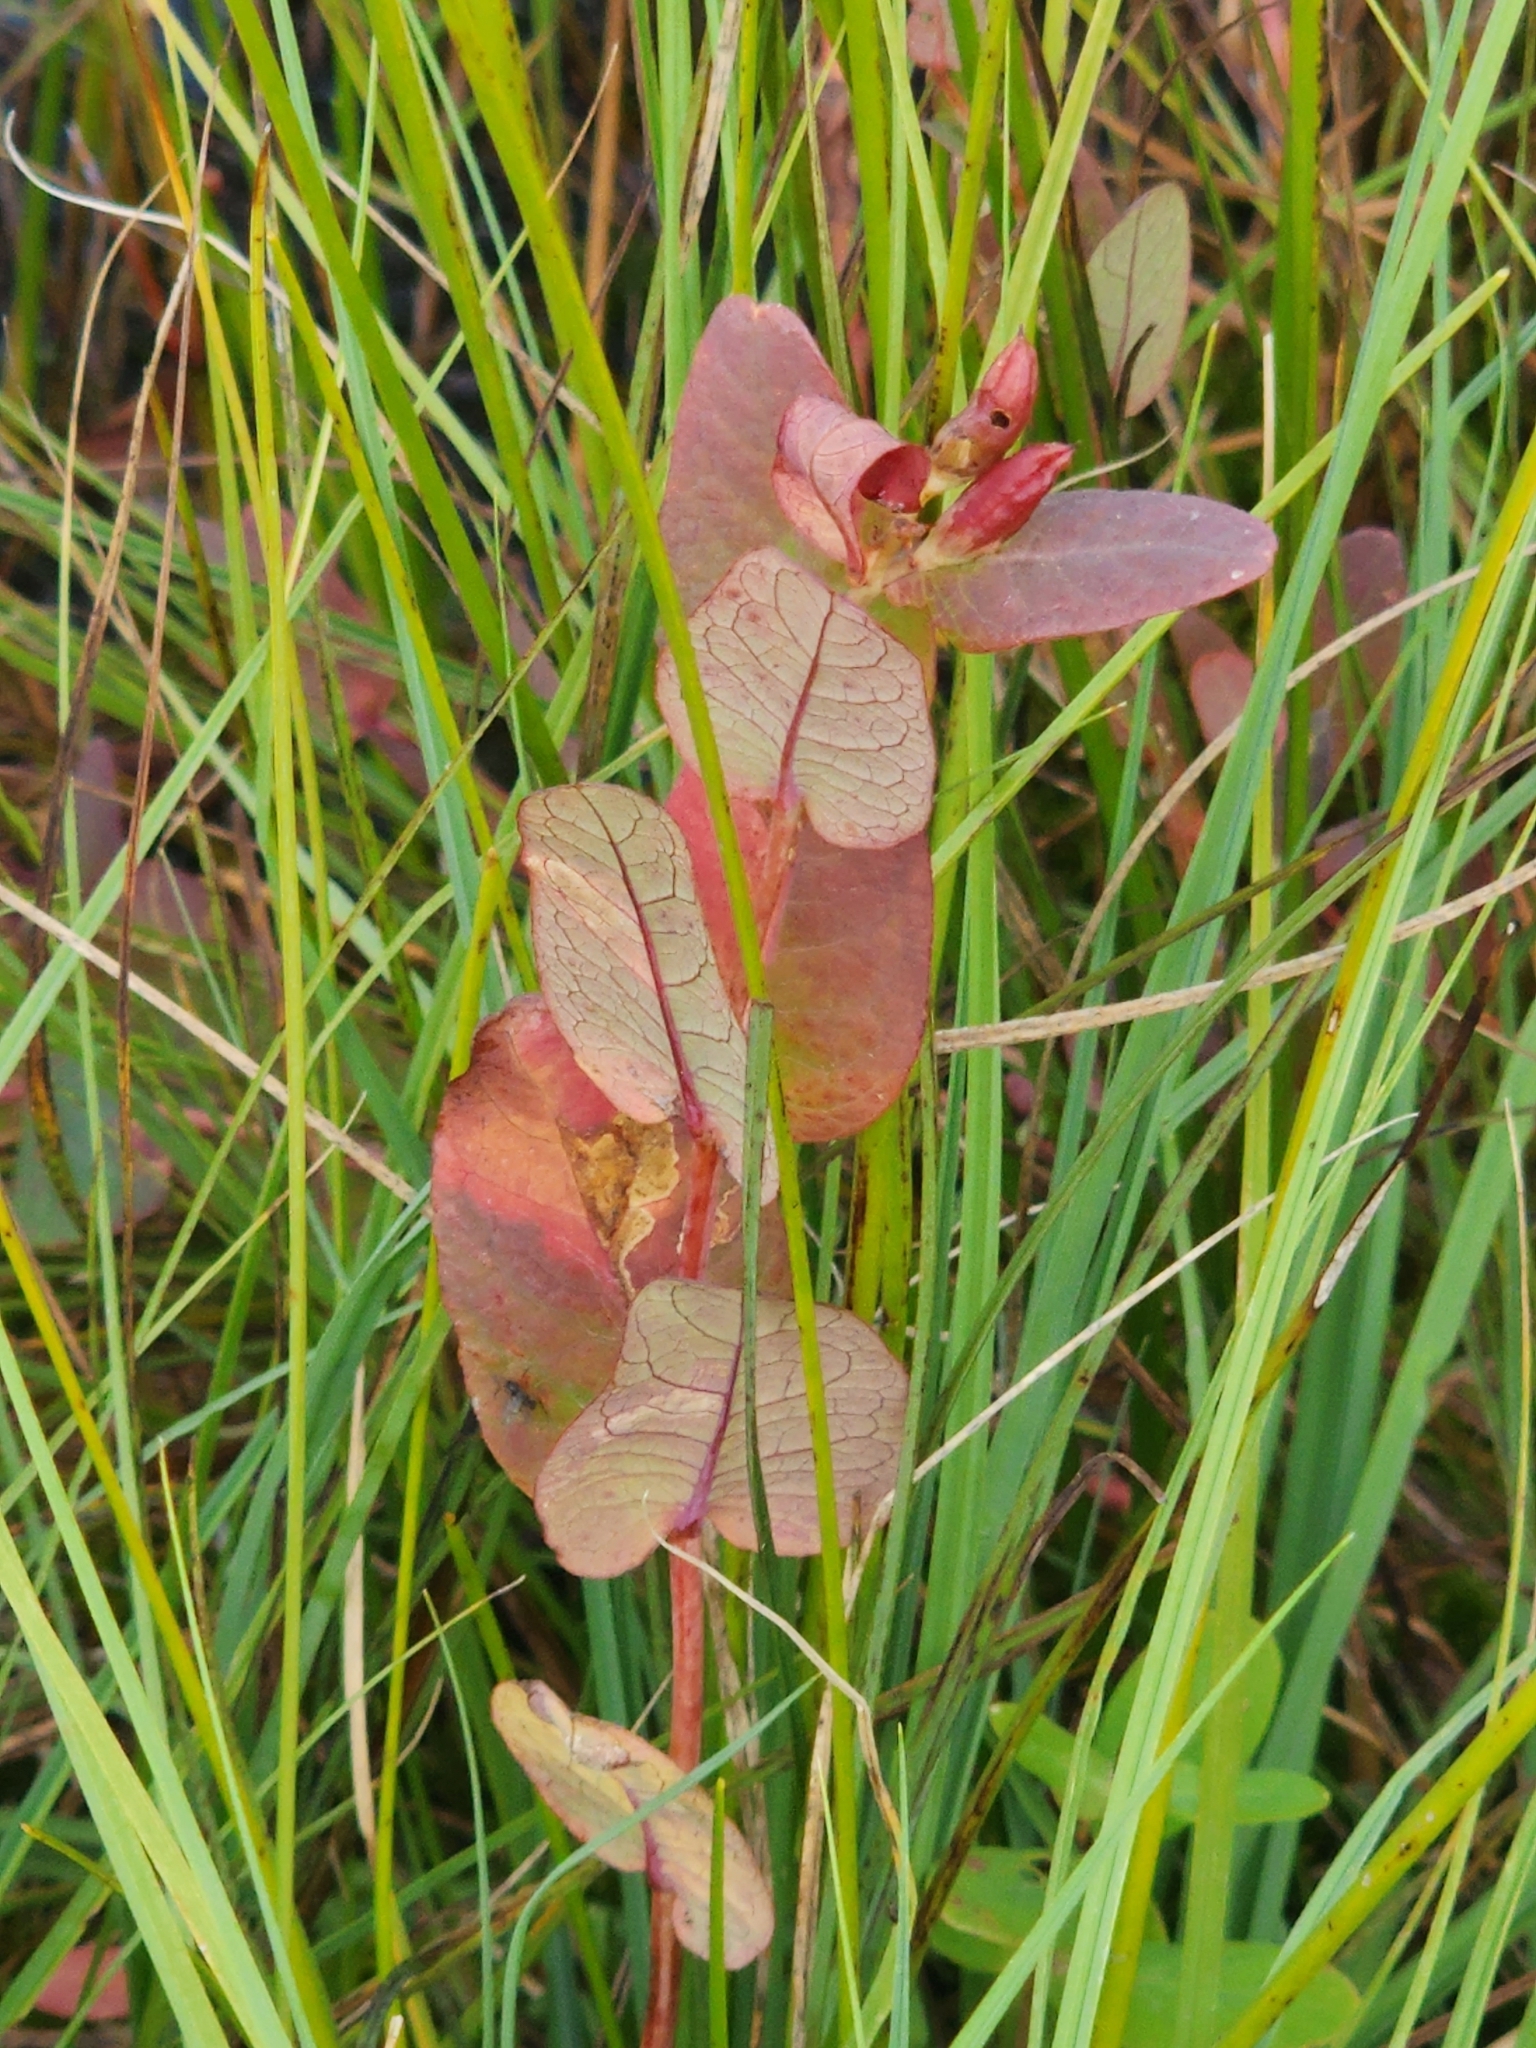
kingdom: Plantae
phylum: Tracheophyta
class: Magnoliopsida
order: Malpighiales
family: Hypericaceae
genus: Triadenum
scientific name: Triadenum fraseri
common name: Fraser's marsh st. johnswort
